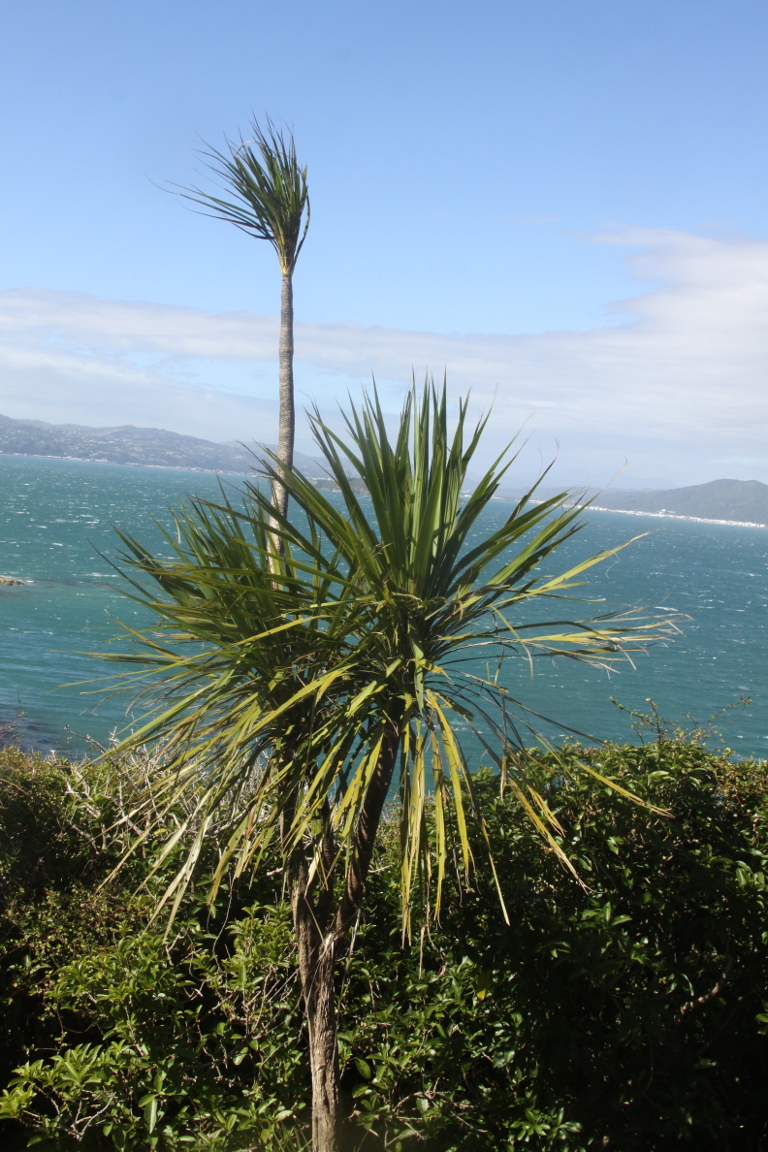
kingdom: Plantae
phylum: Tracheophyta
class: Liliopsida
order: Asparagales
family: Asparagaceae
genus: Cordyline
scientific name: Cordyline australis
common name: Cabbage-palm
